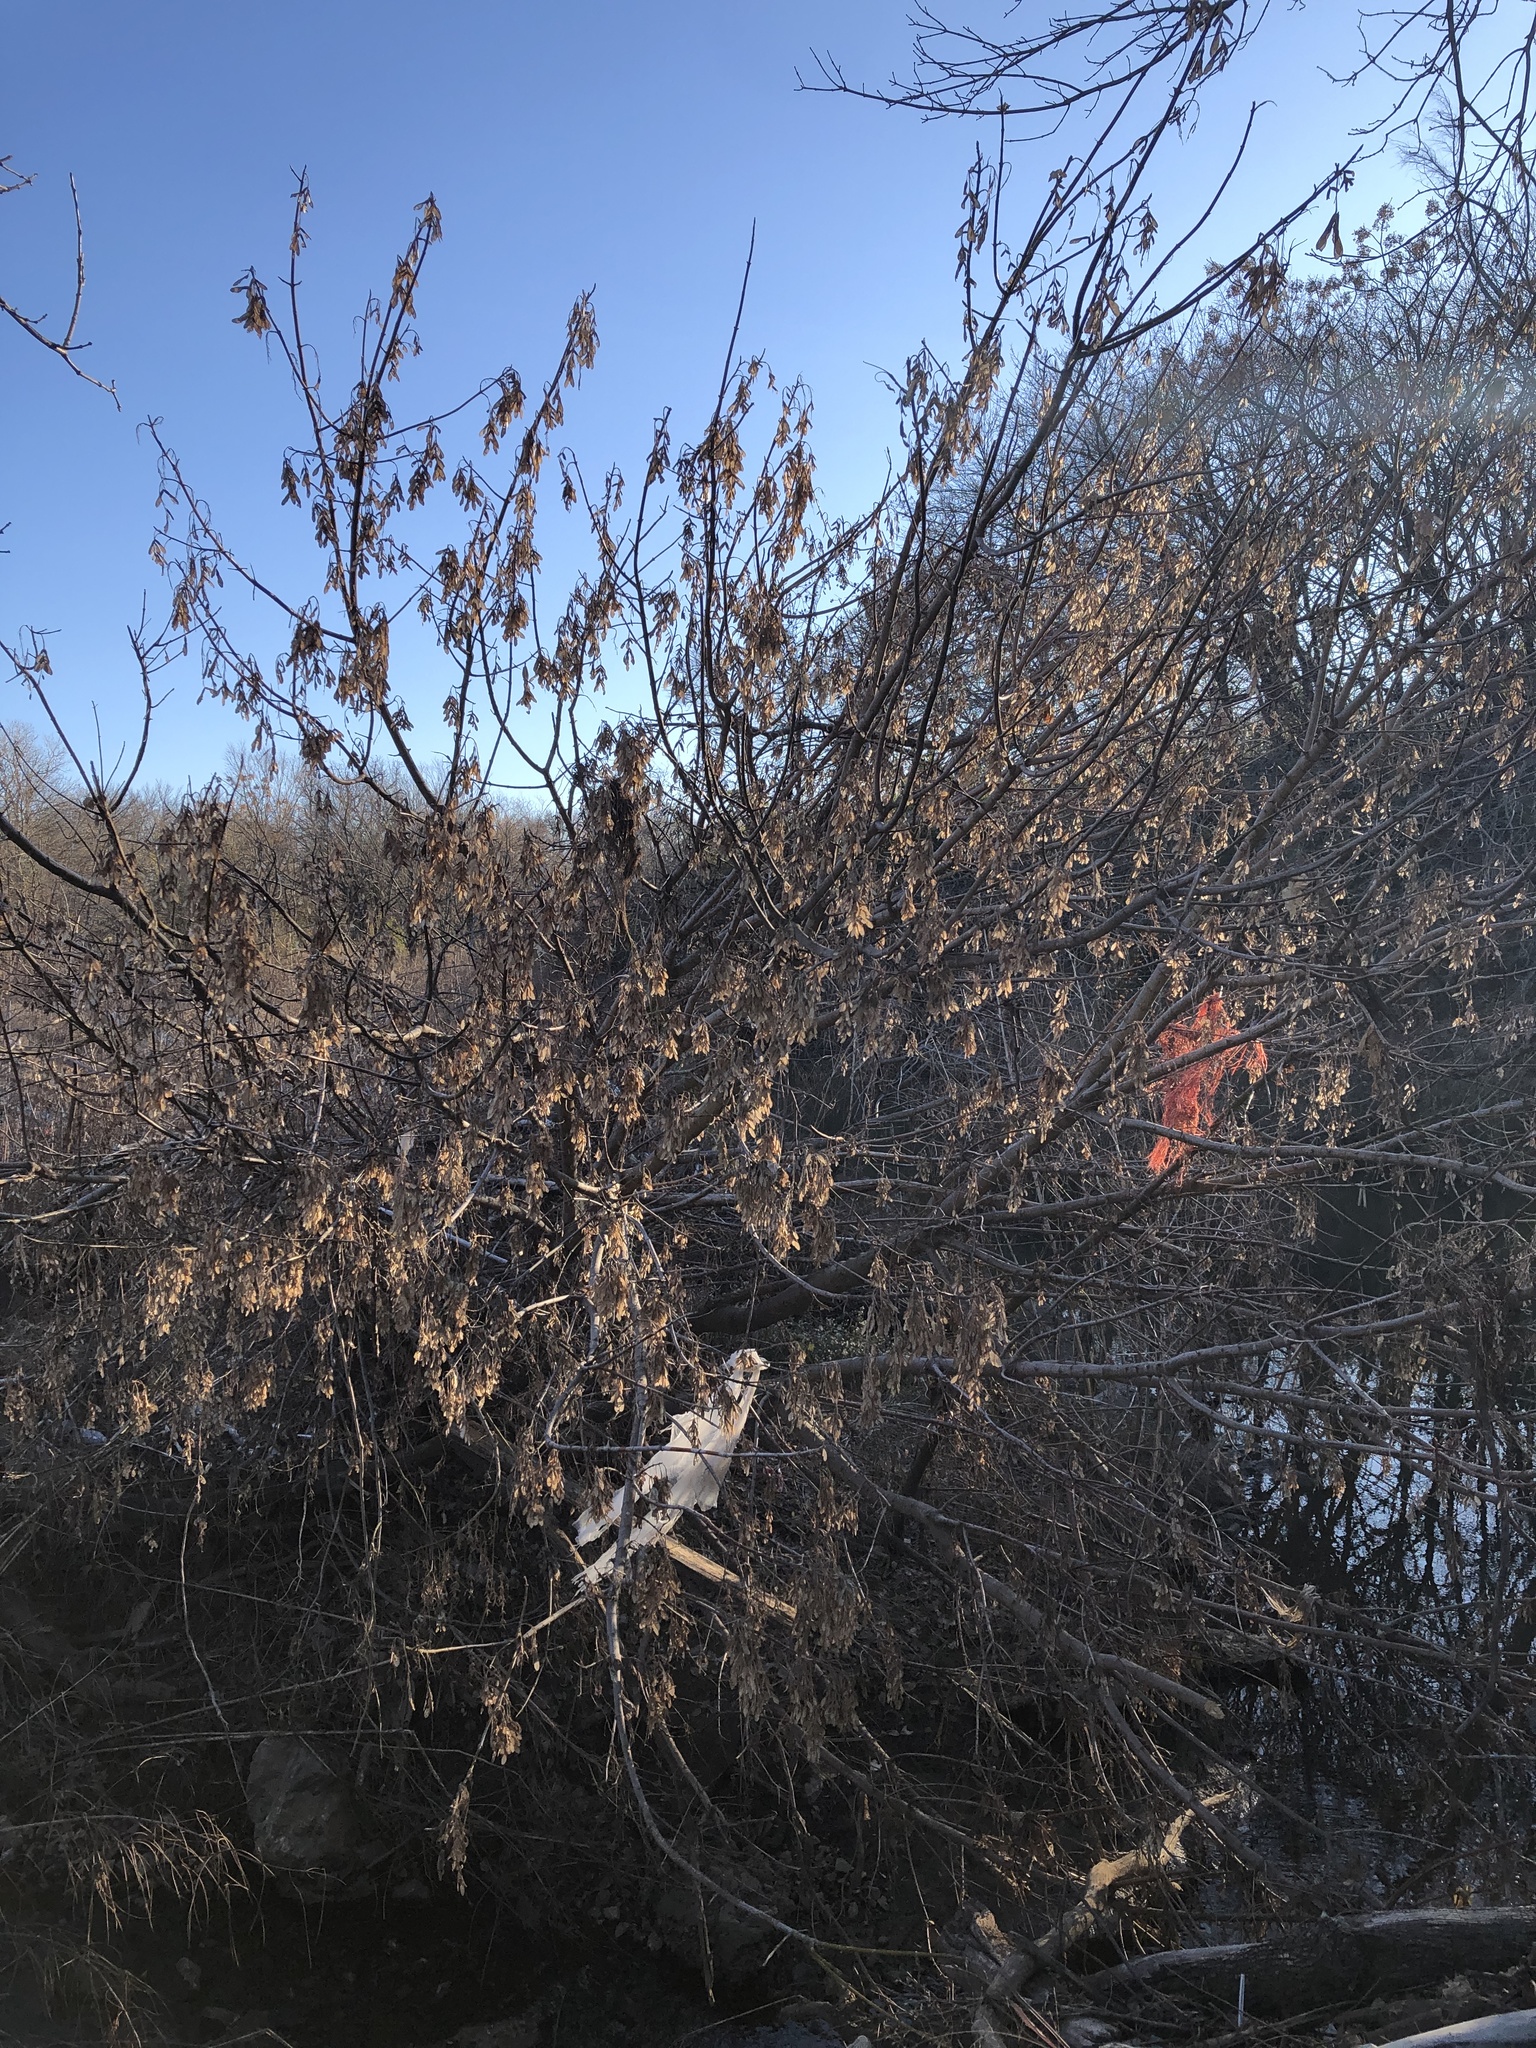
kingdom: Plantae
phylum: Tracheophyta
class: Magnoliopsida
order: Sapindales
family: Sapindaceae
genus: Acer
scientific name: Acer negundo
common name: Ashleaf maple
